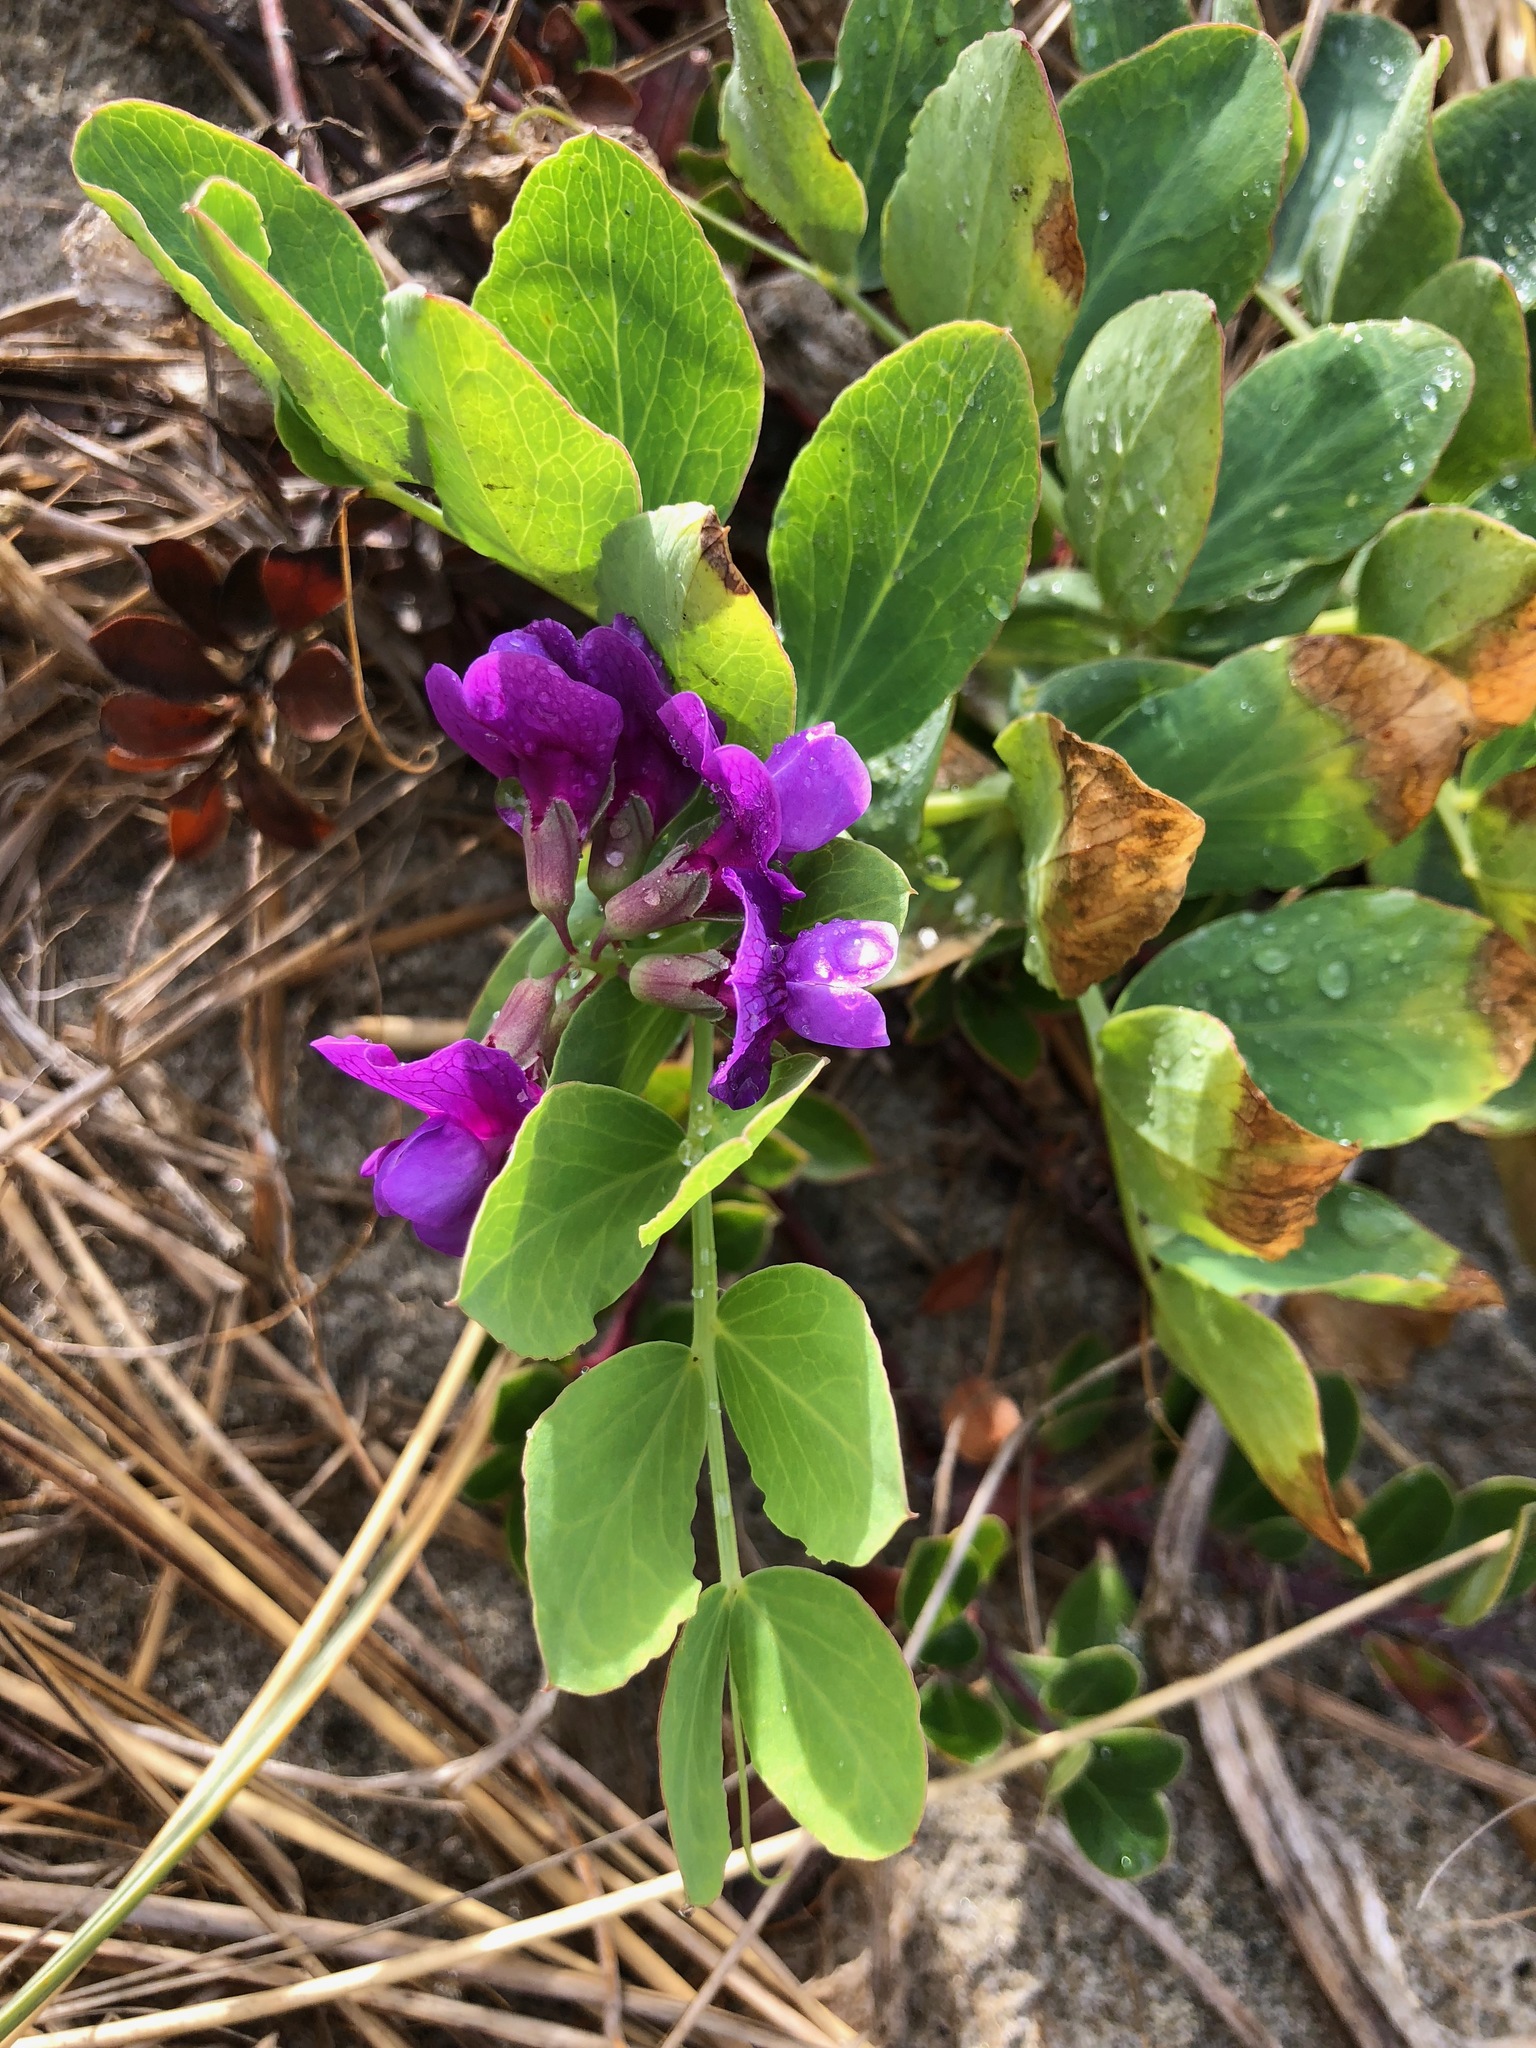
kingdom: Plantae
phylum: Tracheophyta
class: Magnoliopsida
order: Fabales
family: Fabaceae
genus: Lathyrus
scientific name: Lathyrus japonicus
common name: Sea pea
